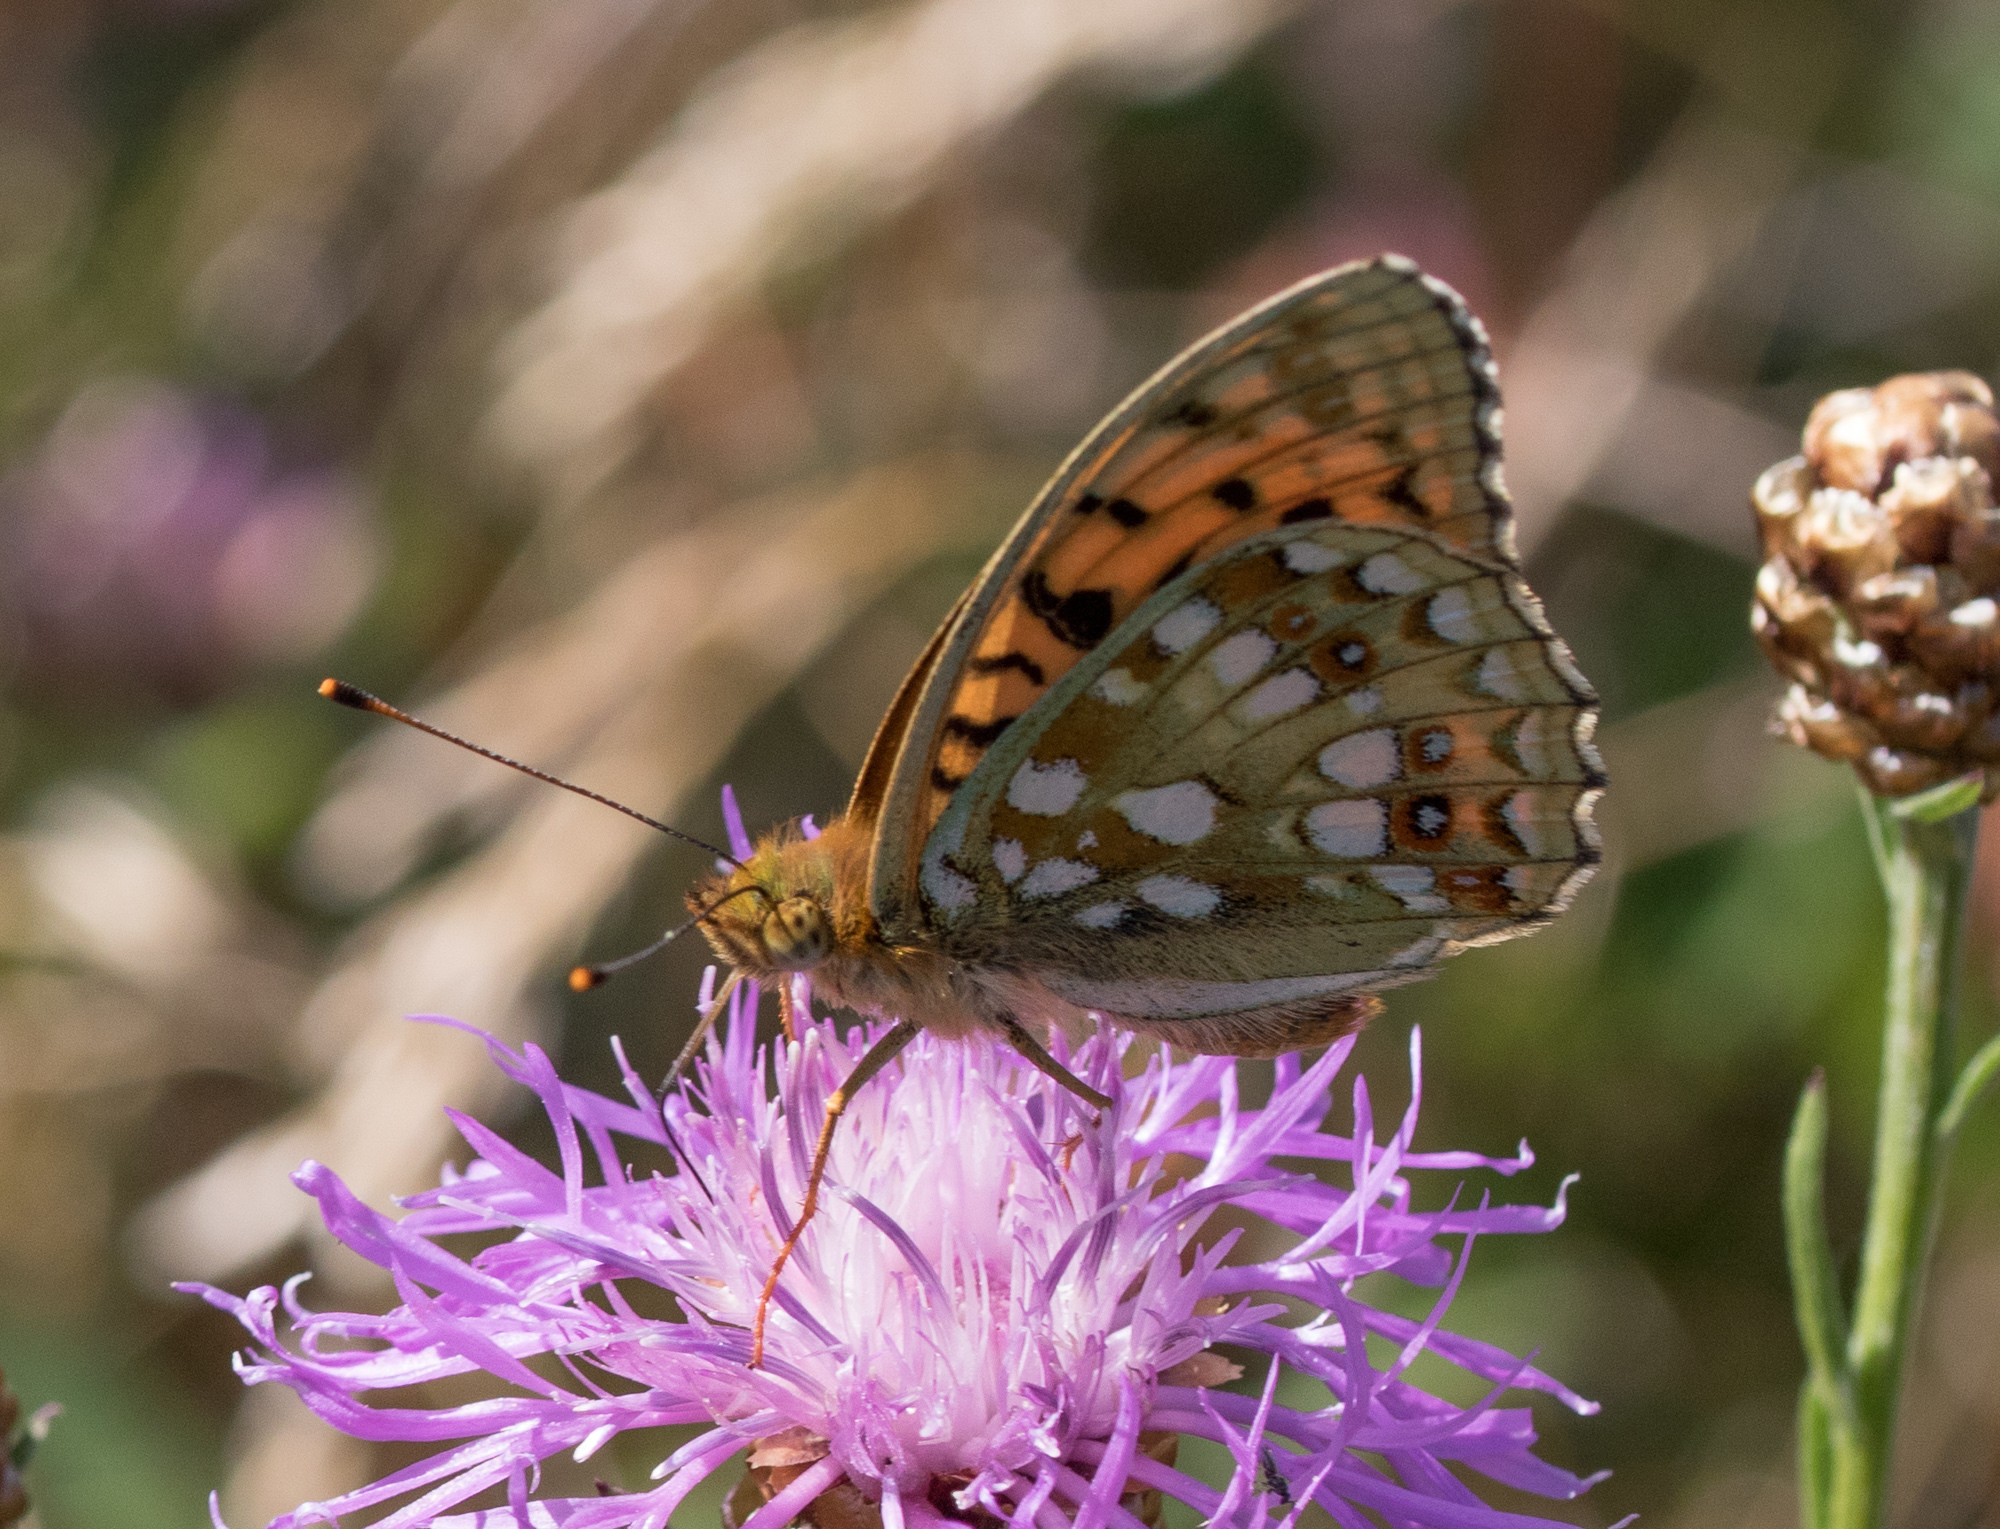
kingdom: Animalia
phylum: Arthropoda
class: Insecta
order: Lepidoptera
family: Nymphalidae
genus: Fabriciana
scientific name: Fabriciana adippe
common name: High brown fritillary
